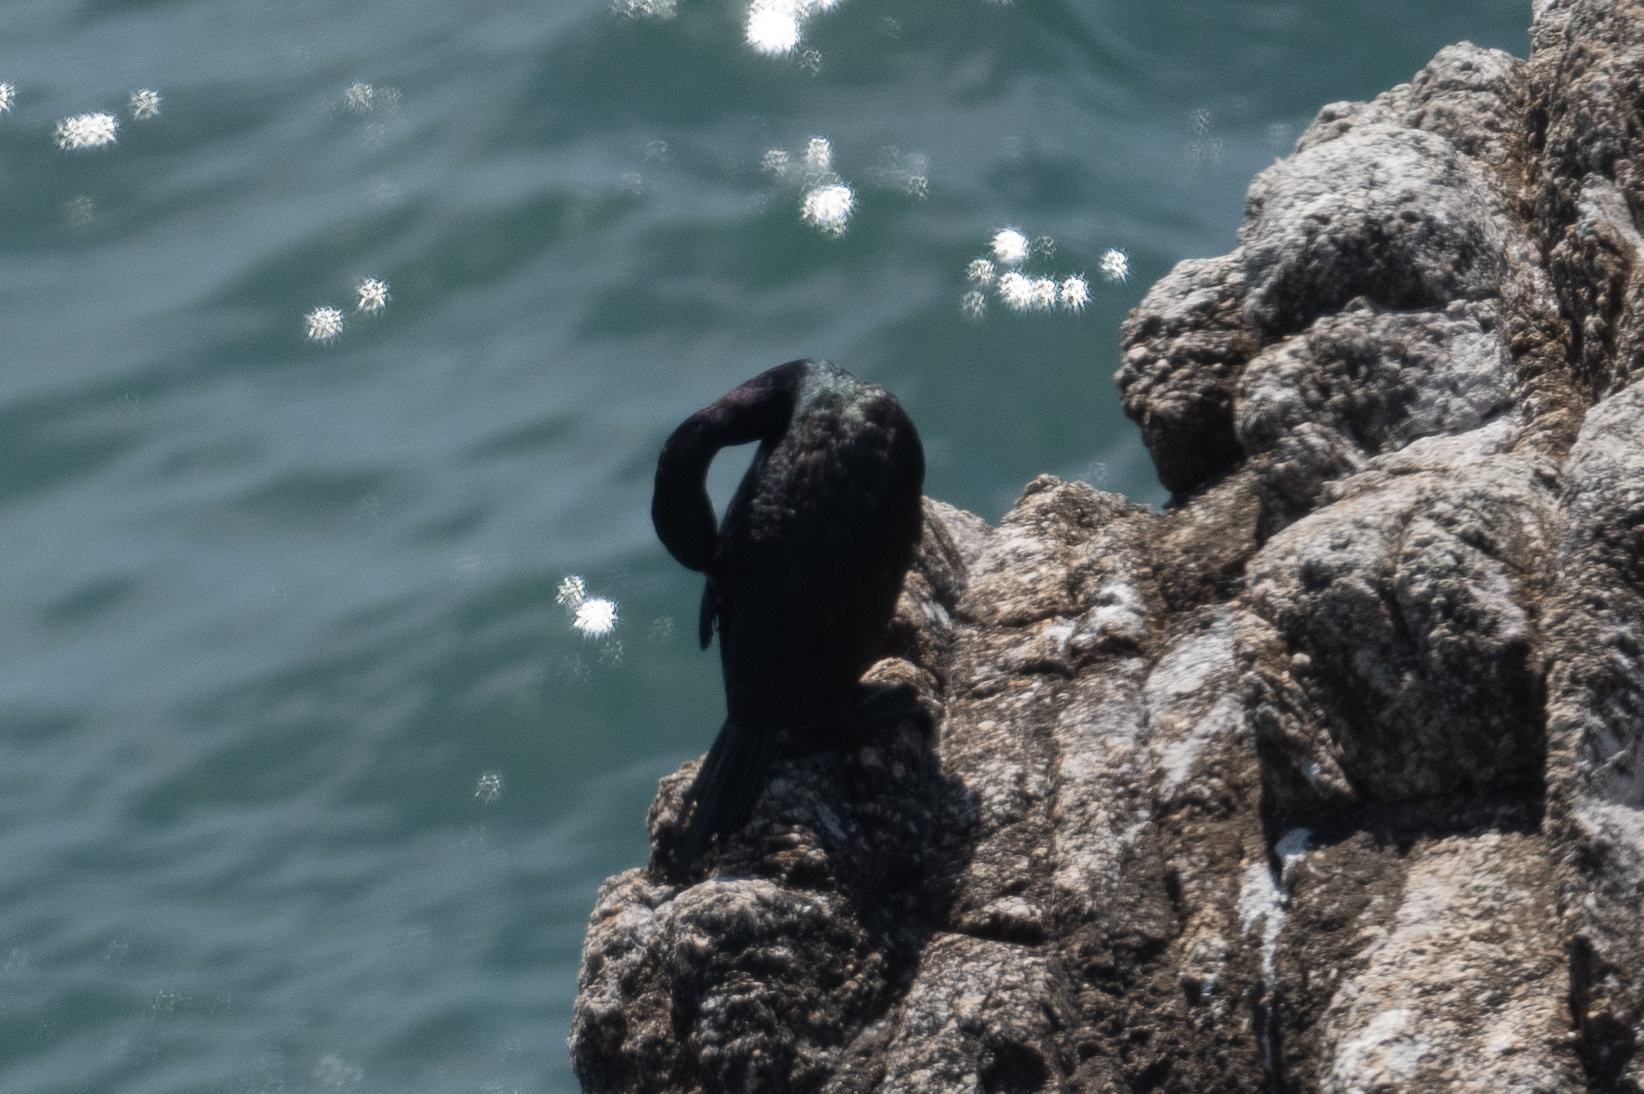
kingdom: Animalia
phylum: Chordata
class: Aves
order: Suliformes
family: Phalacrocoracidae
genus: Phalacrocorax
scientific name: Phalacrocorax pelagicus
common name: Pelagic cormorant
